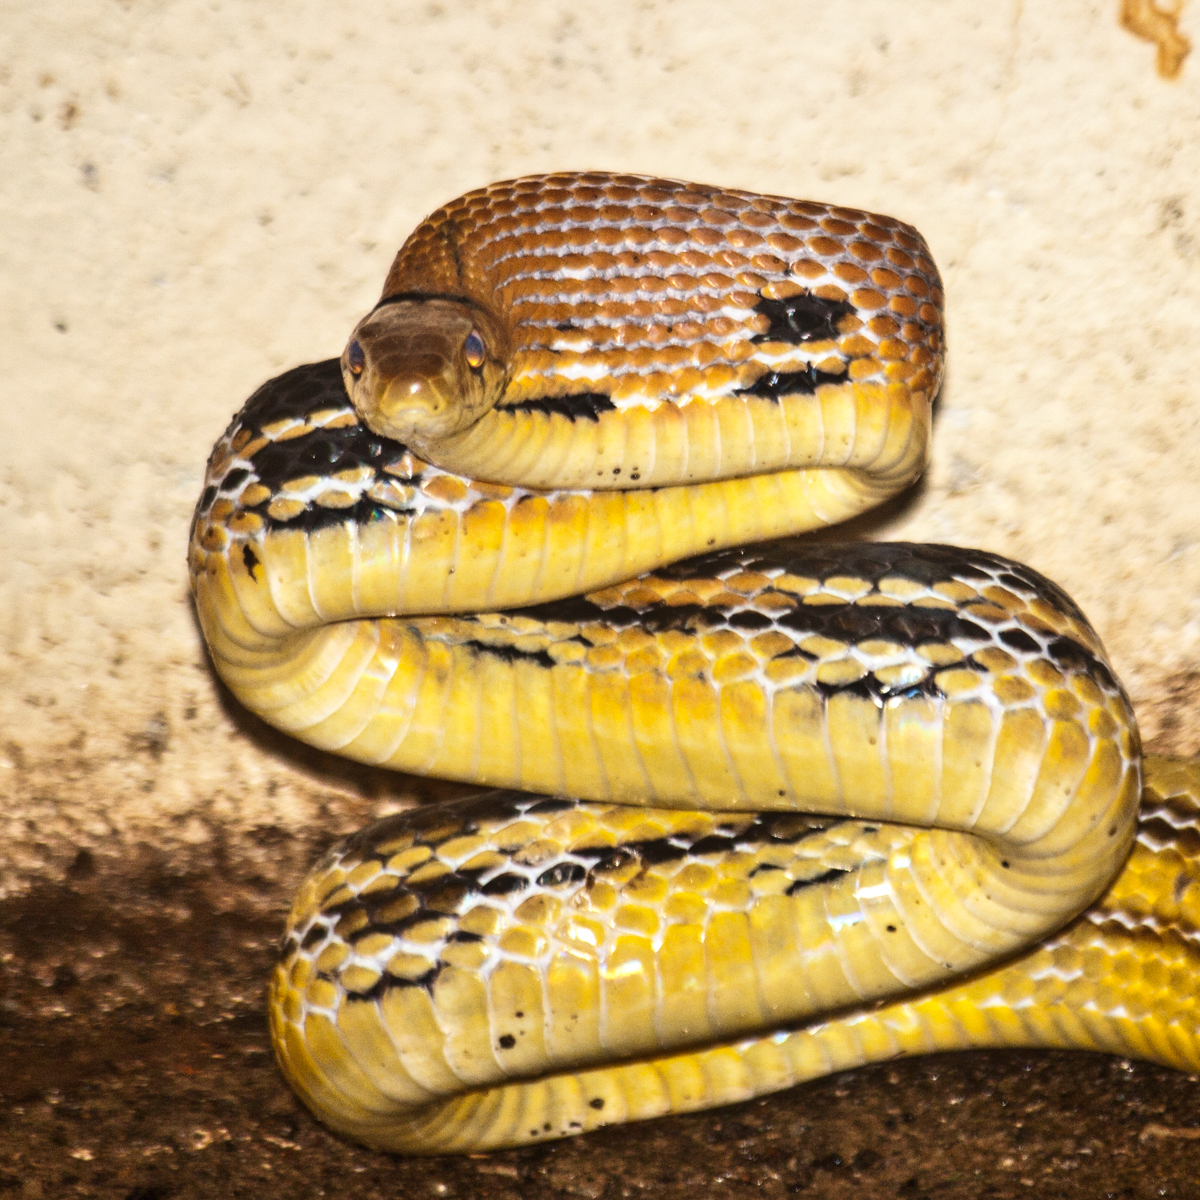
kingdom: Animalia
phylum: Chordata
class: Squamata
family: Colubridae
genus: Coelognathus
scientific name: Coelognathus radiatus
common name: Copperhead rat snake
